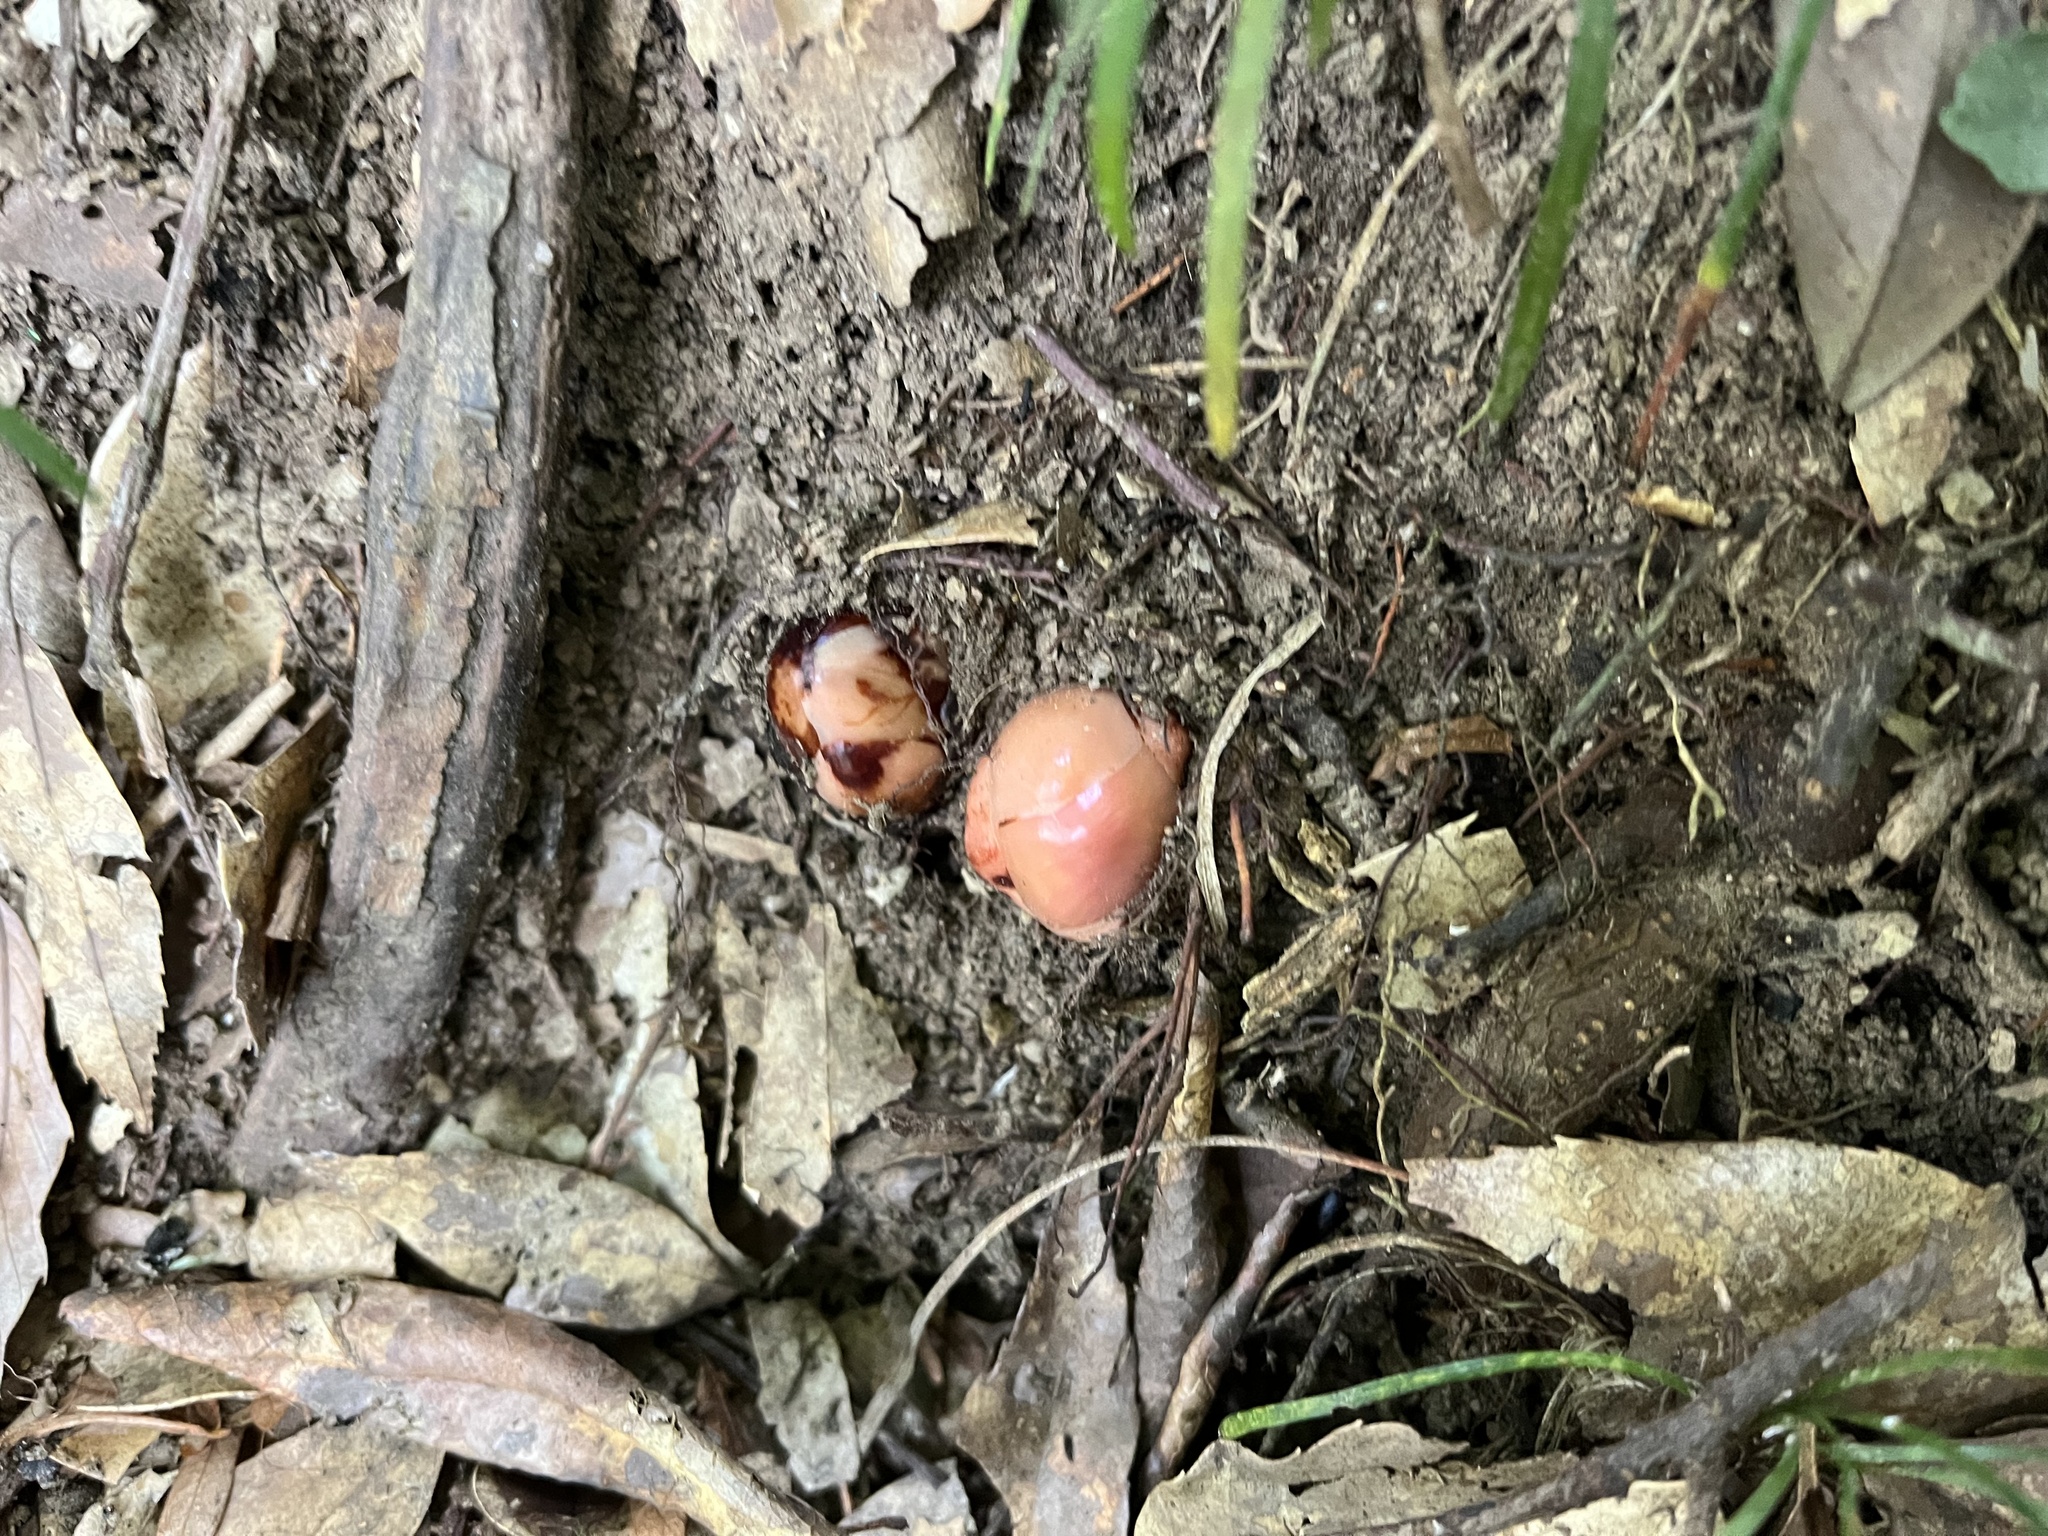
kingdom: Plantae
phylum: Tracheophyta
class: Magnoliopsida
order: Ericales
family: Mitrastemonaceae
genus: Mitrastemon
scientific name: Mitrastemon yamamotoi
